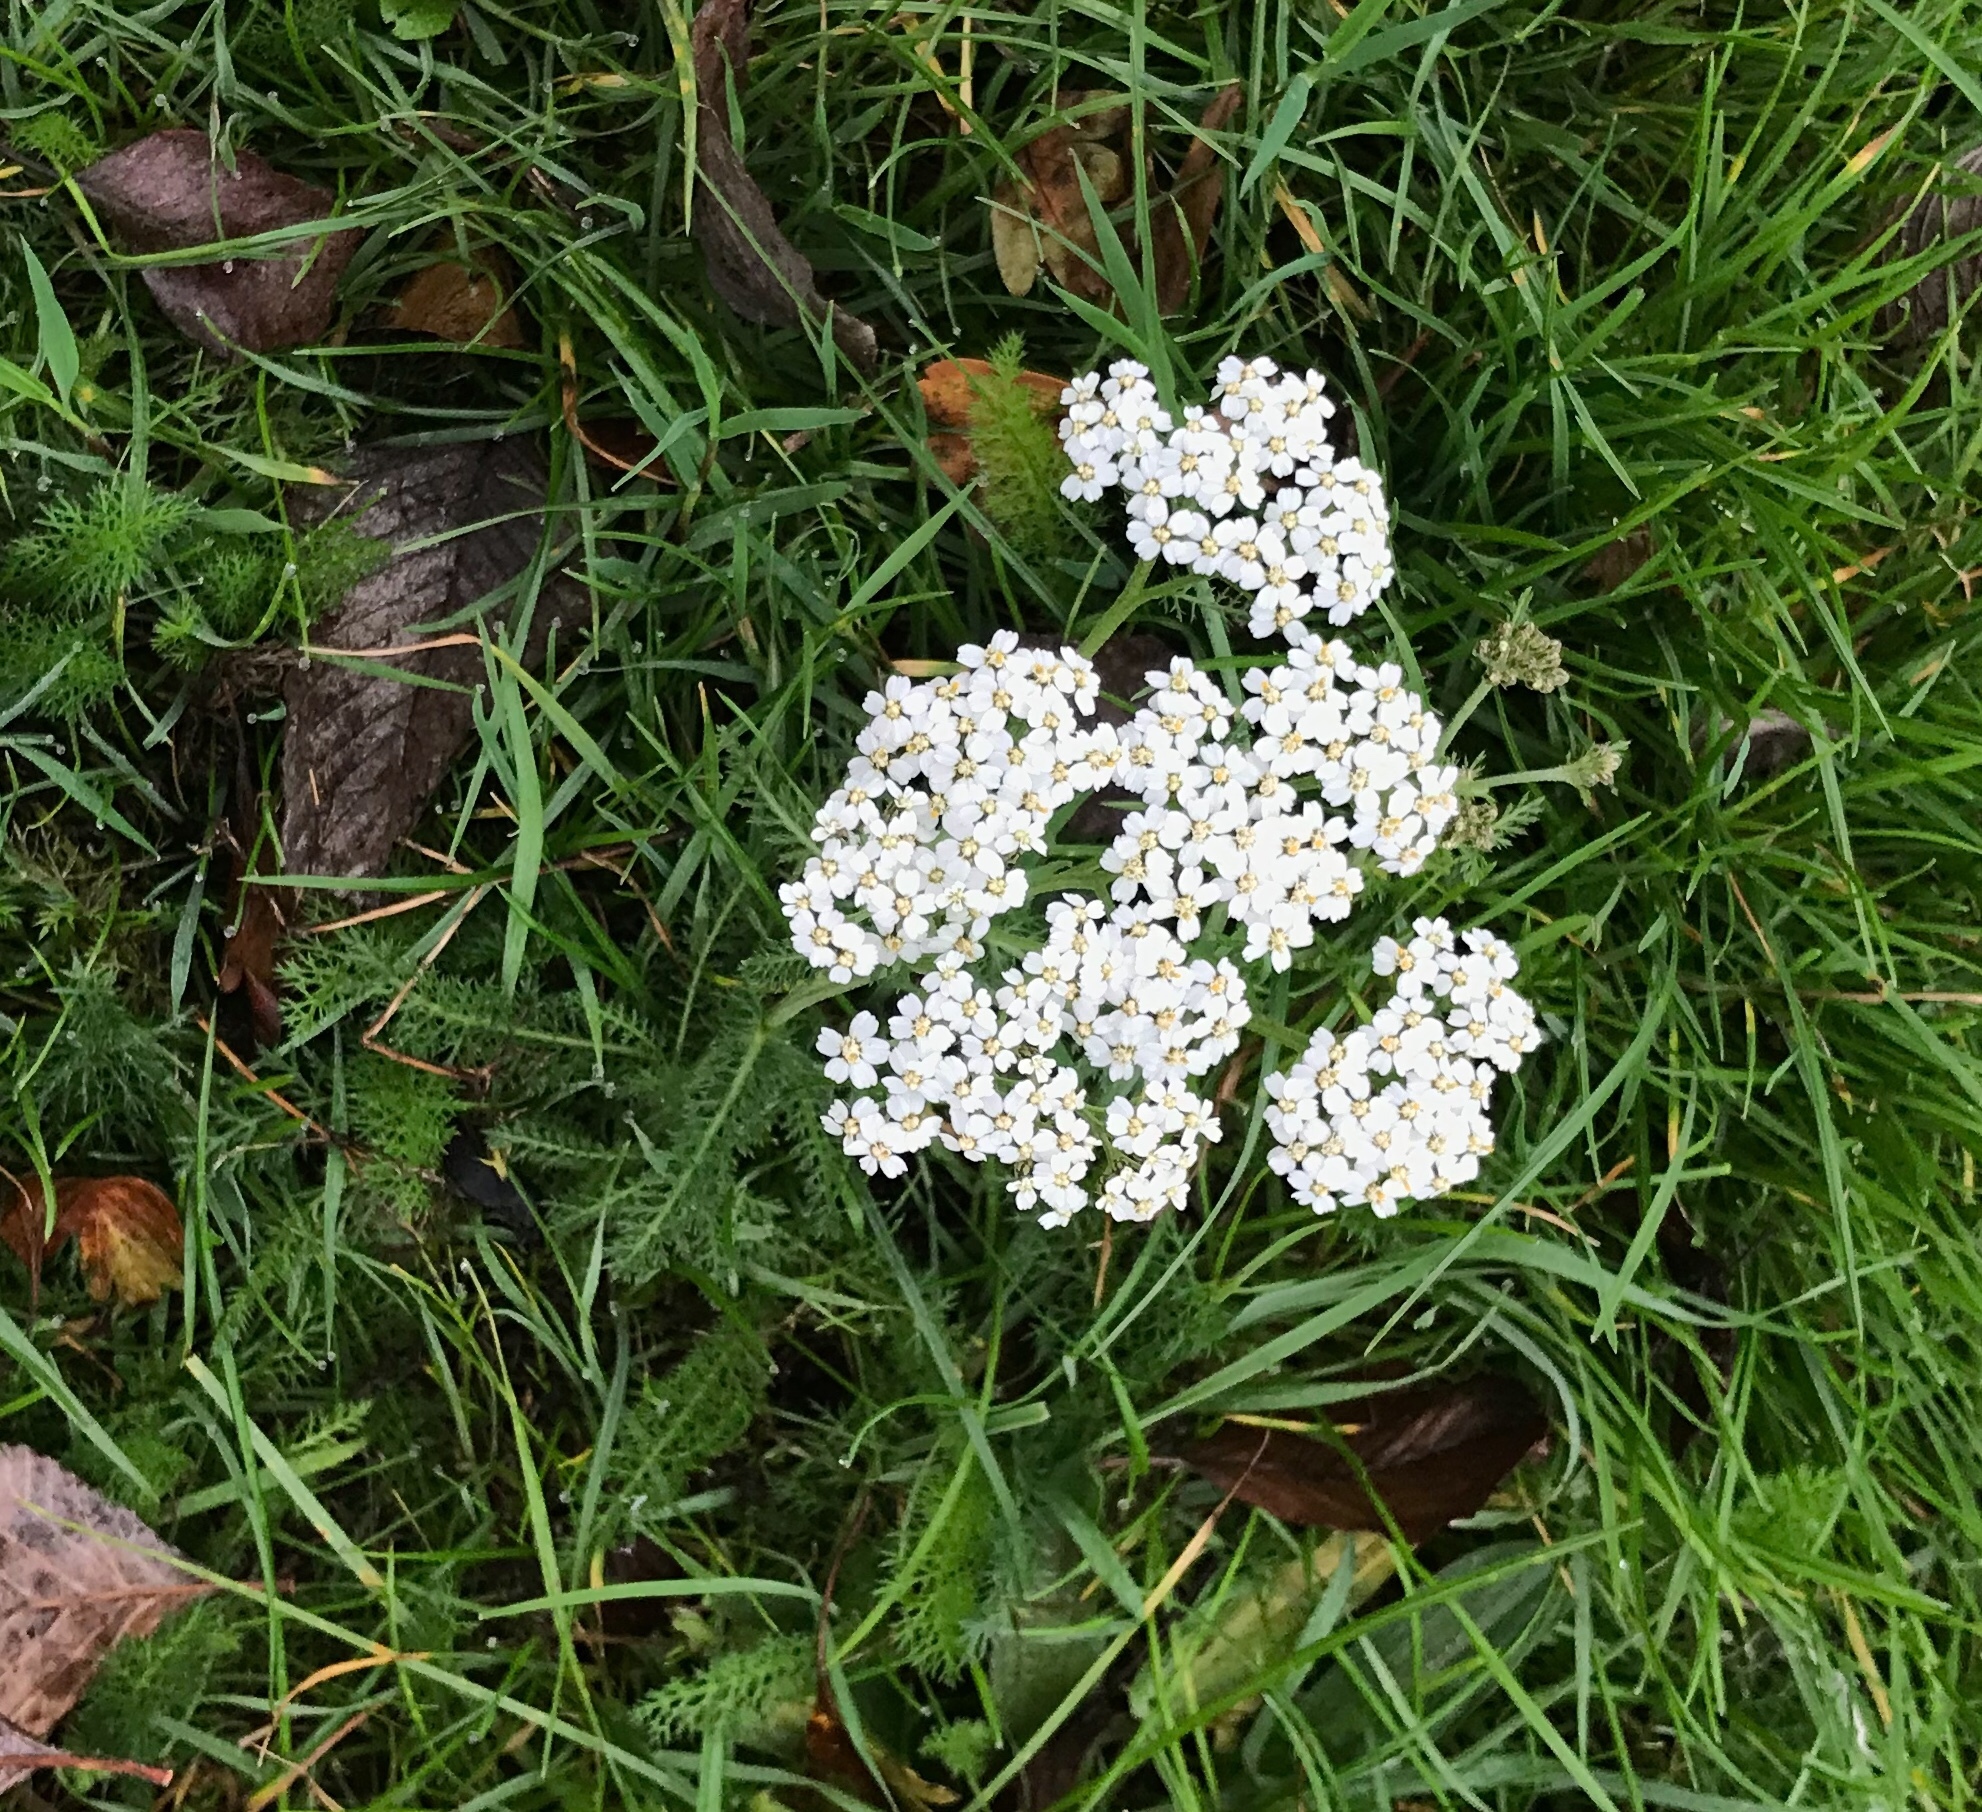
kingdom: Plantae
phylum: Tracheophyta
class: Magnoliopsida
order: Asterales
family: Asteraceae
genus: Achillea
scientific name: Achillea millefolium
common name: Yarrow
